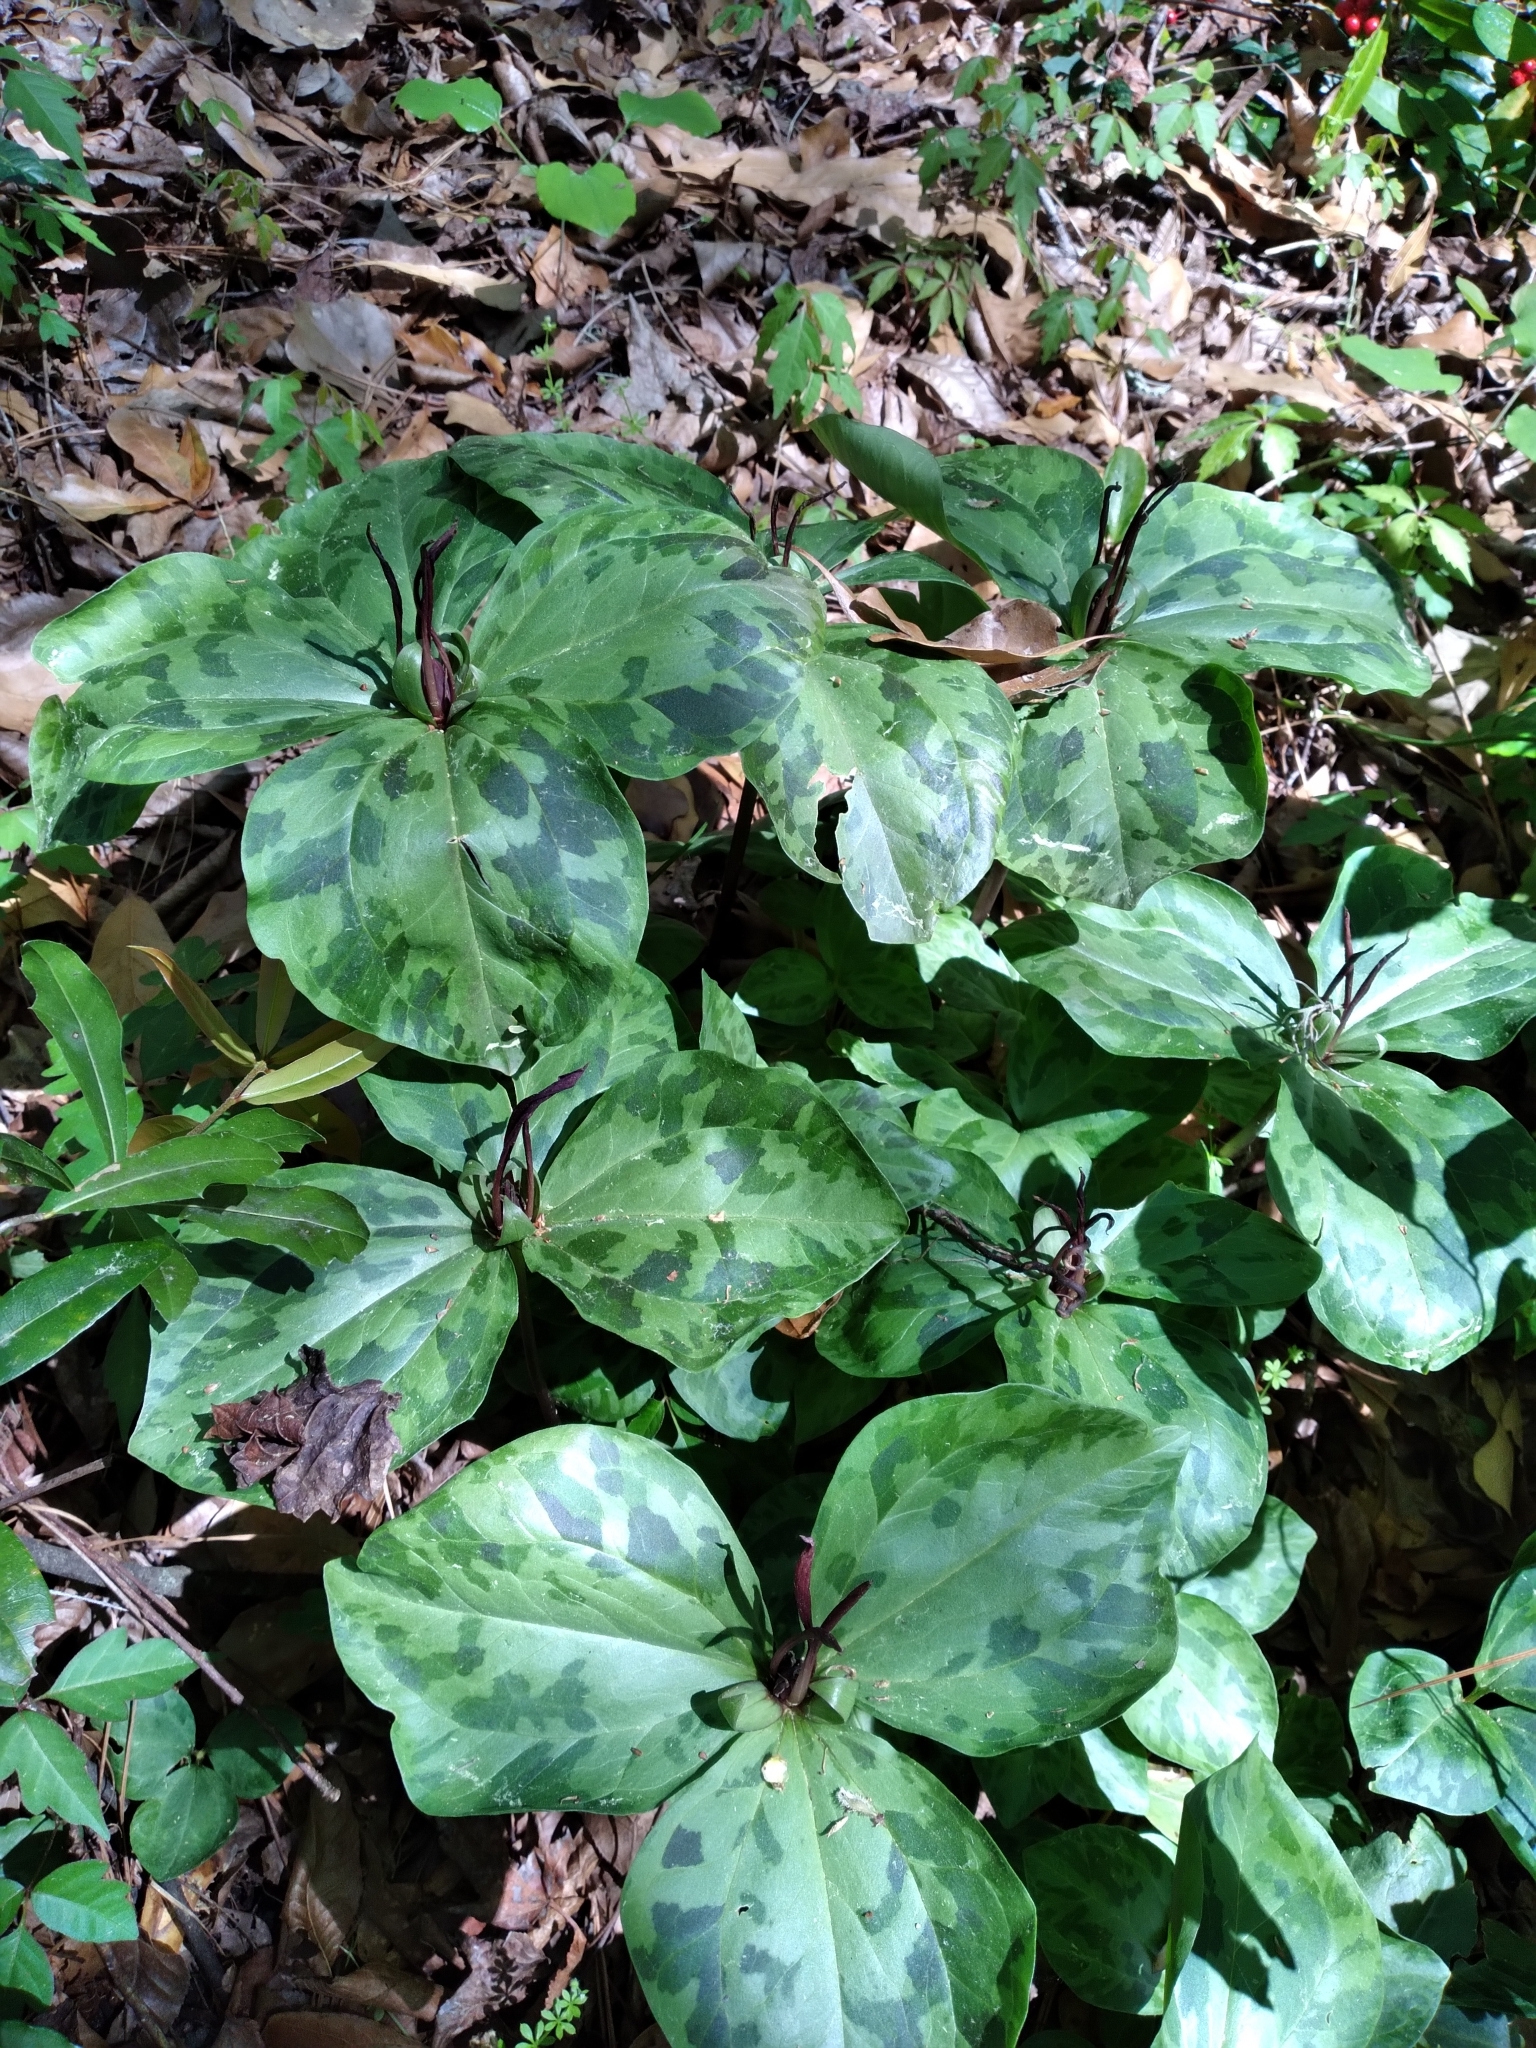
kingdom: Plantae
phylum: Tracheophyta
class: Liliopsida
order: Liliales
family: Melanthiaceae
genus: Trillium
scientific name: Trillium maculatum
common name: Mottled trillium
